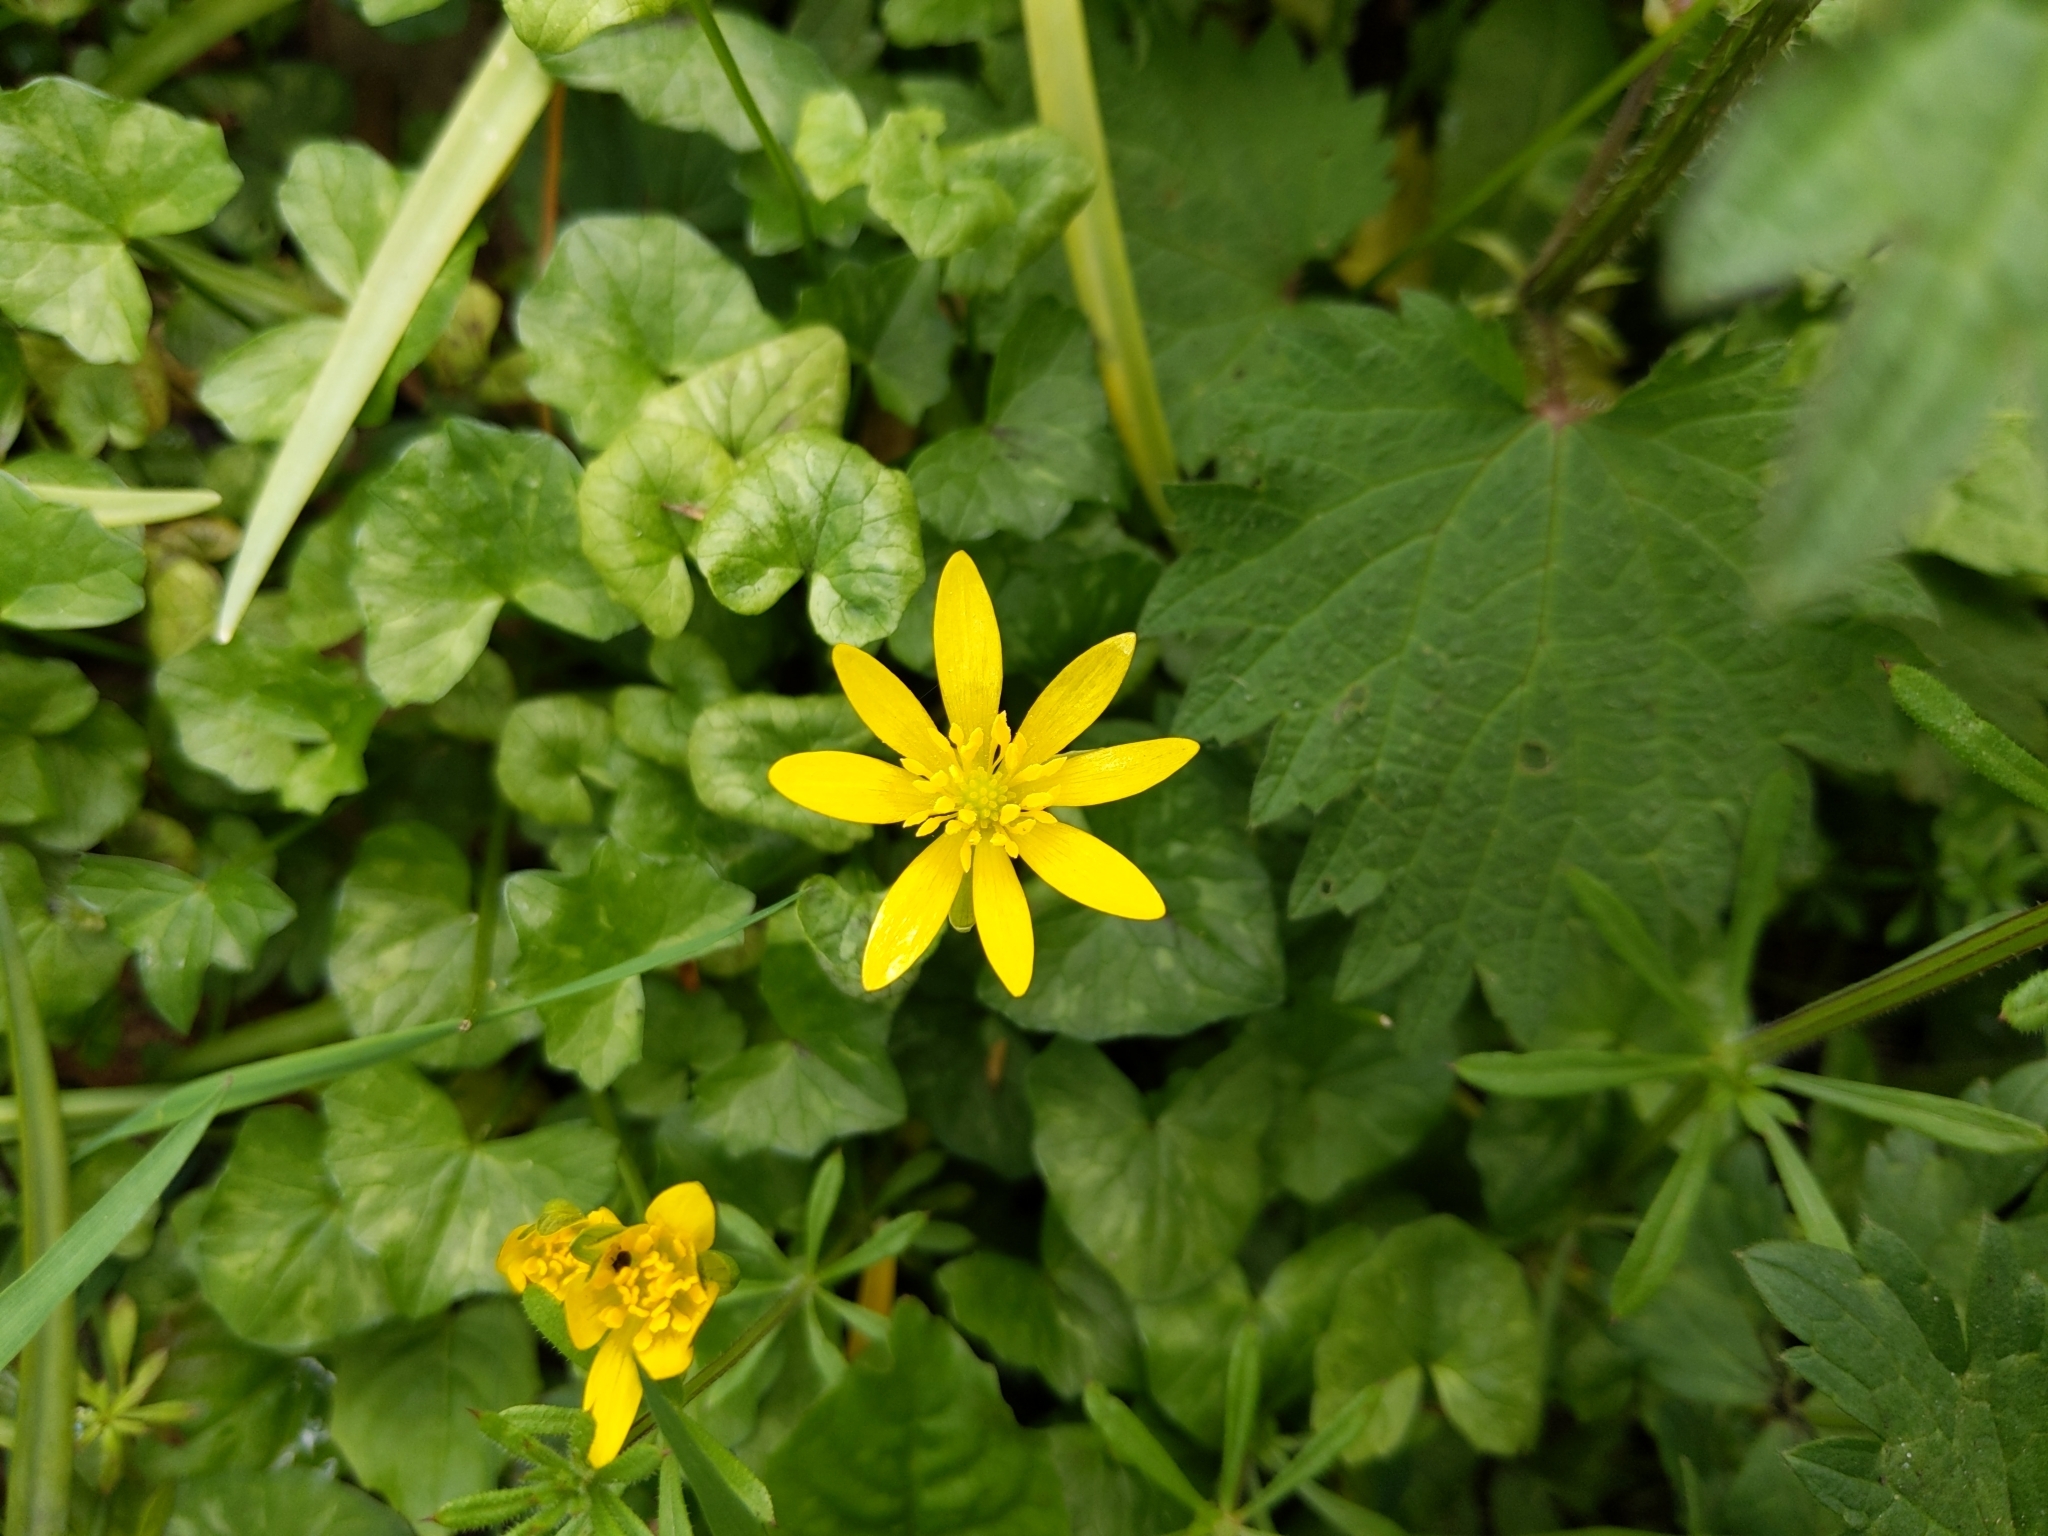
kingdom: Plantae
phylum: Tracheophyta
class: Magnoliopsida
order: Ranunculales
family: Ranunculaceae
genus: Ficaria
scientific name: Ficaria verna
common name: Lesser celandine
